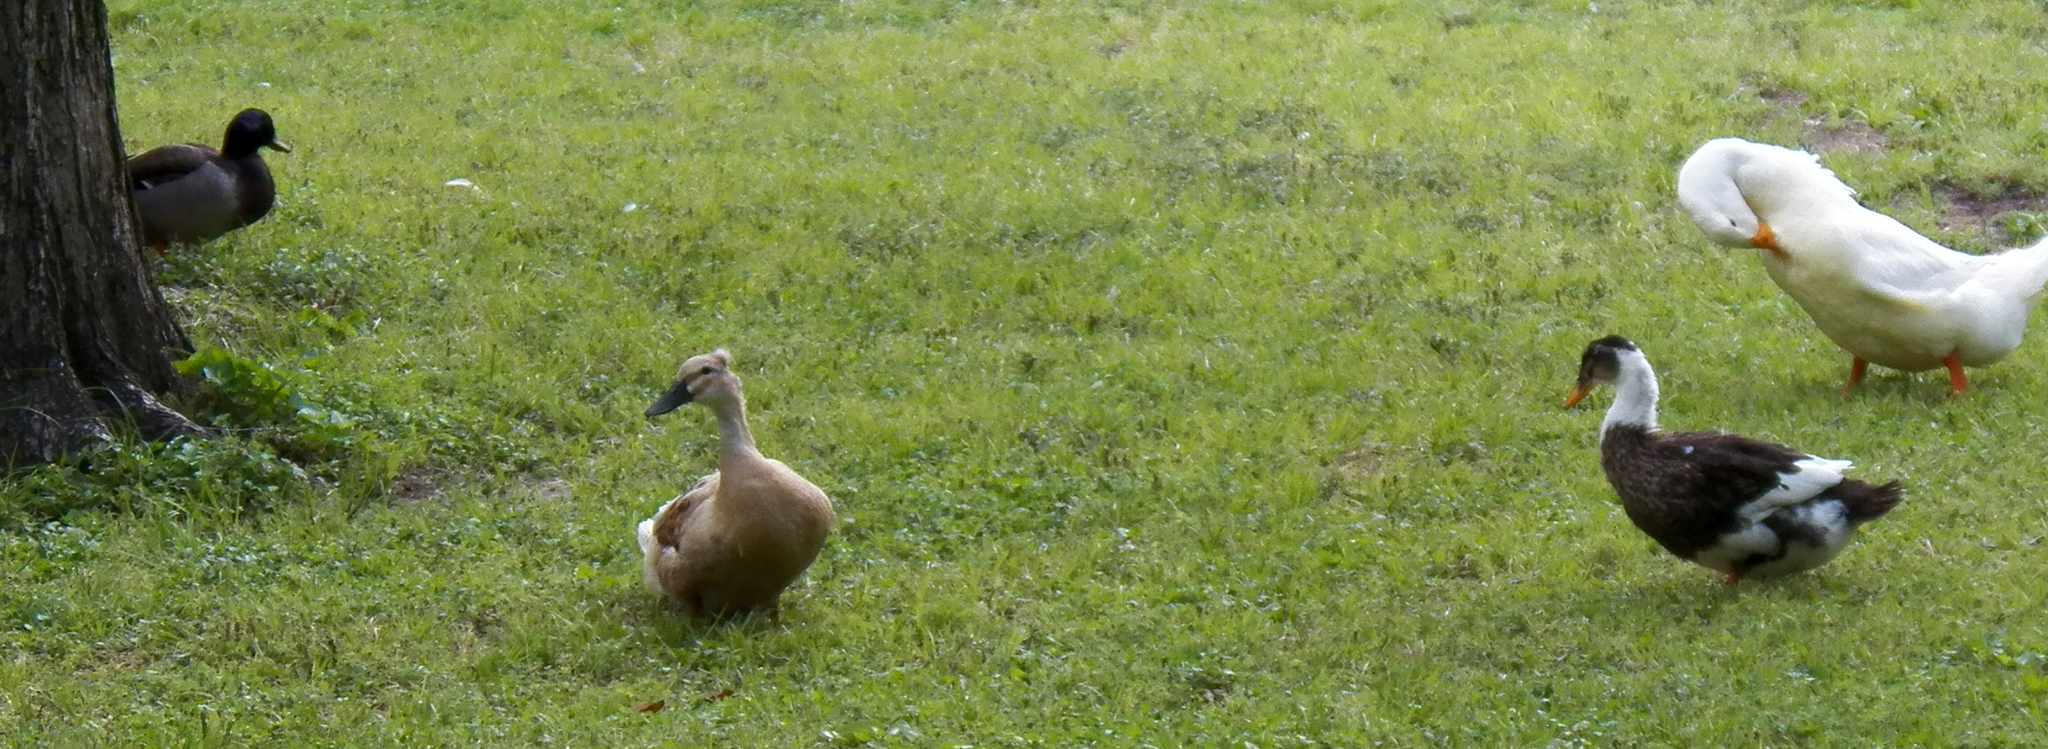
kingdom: Animalia
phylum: Chordata
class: Aves
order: Anseriformes
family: Anatidae
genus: Anas
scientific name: Anas platyrhynchos
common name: Mallard
